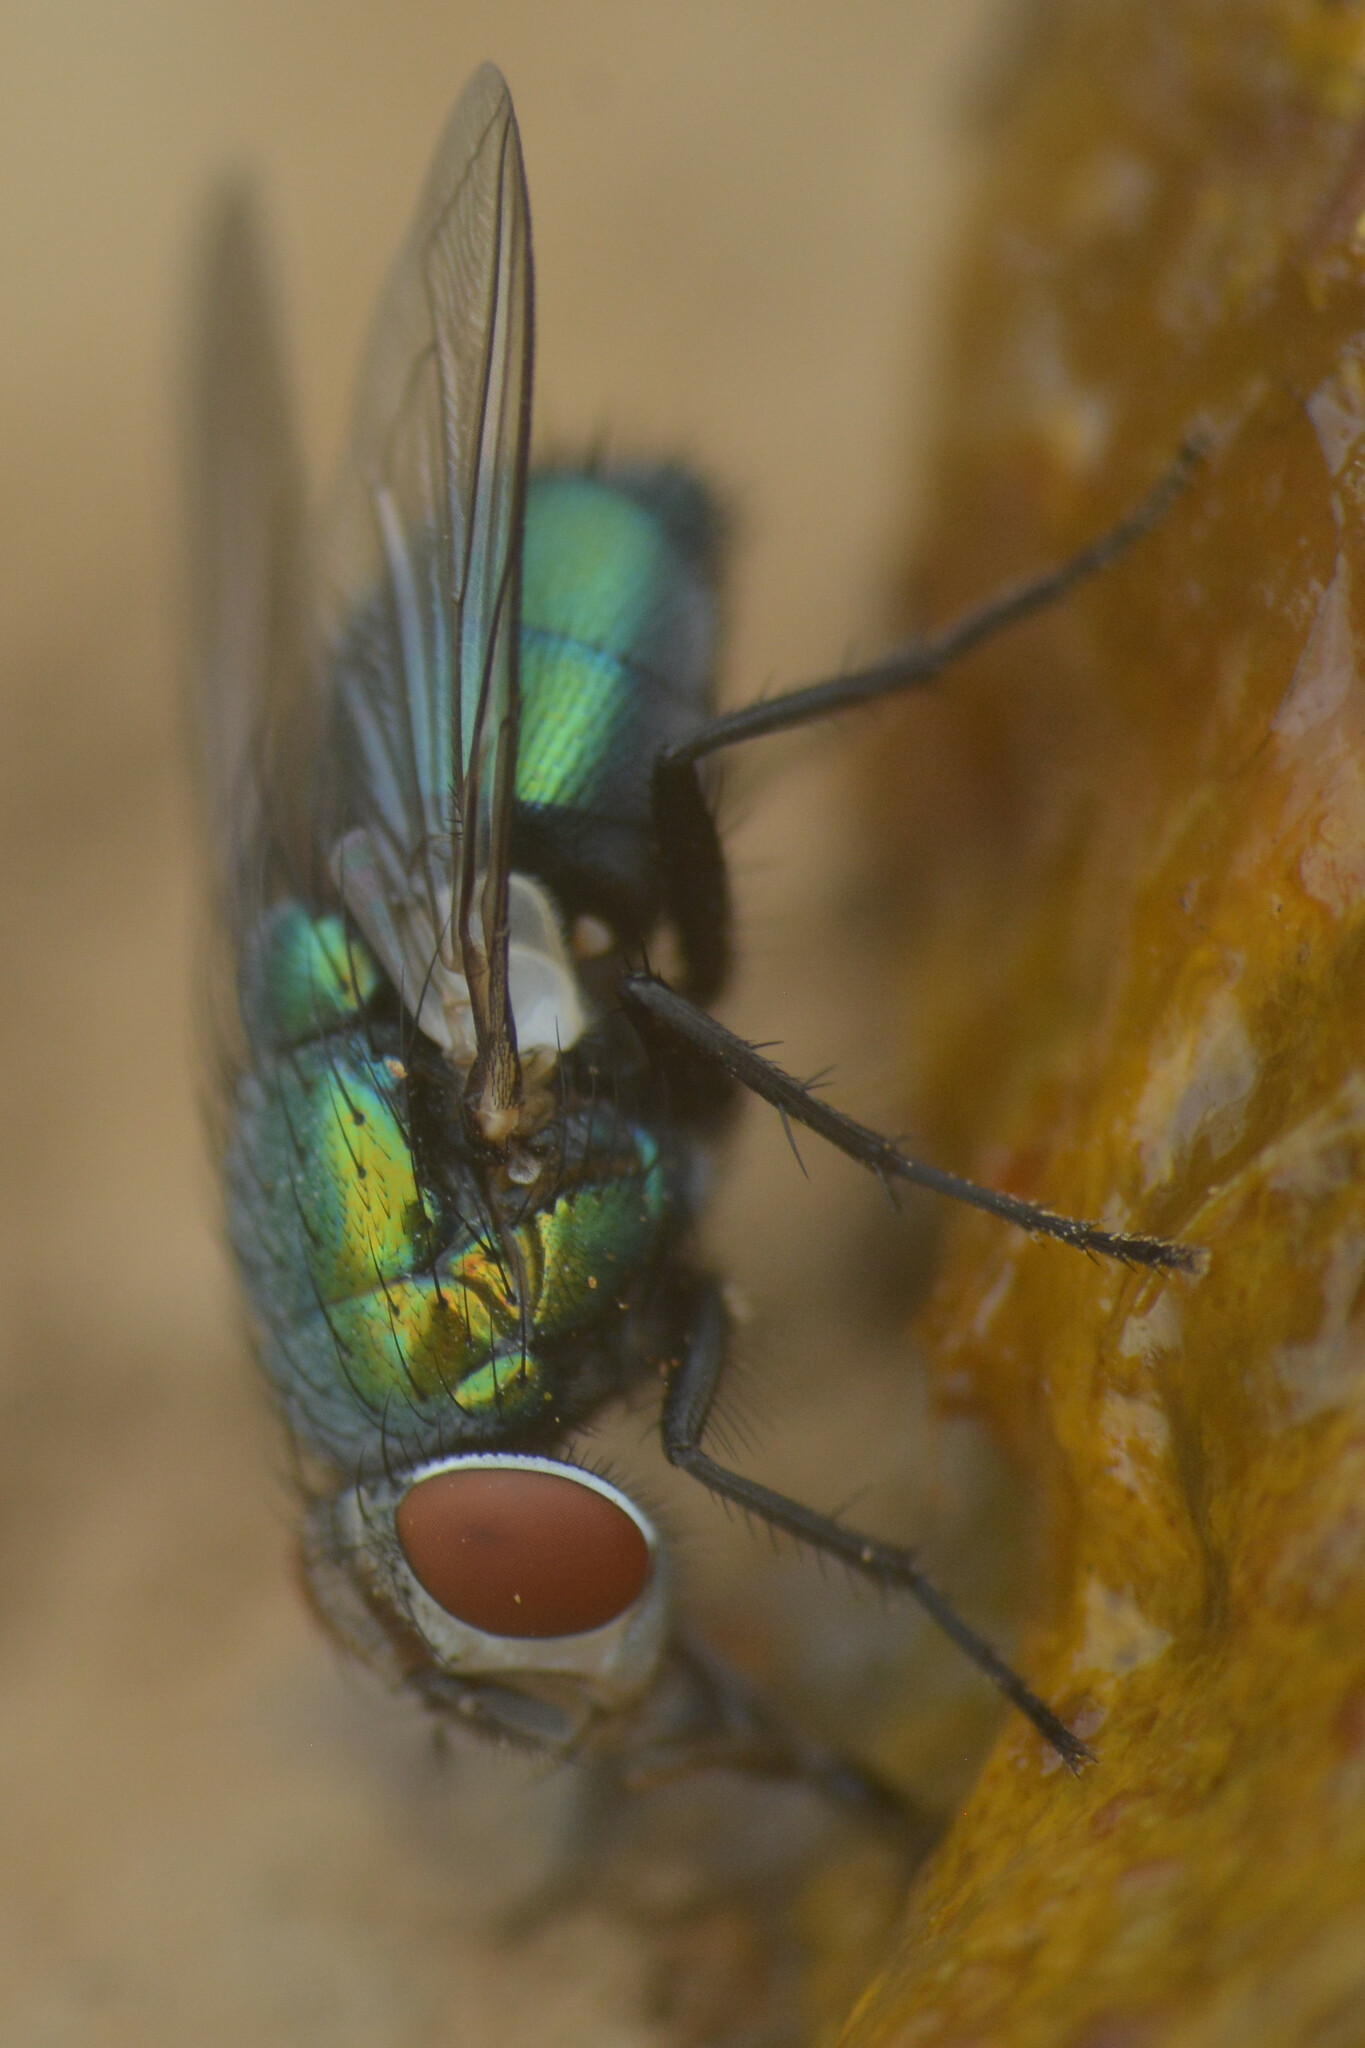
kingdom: Animalia
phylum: Arthropoda
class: Insecta
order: Diptera
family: Calliphoridae
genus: Lucilia
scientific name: Lucilia sericata
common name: Blow fly
